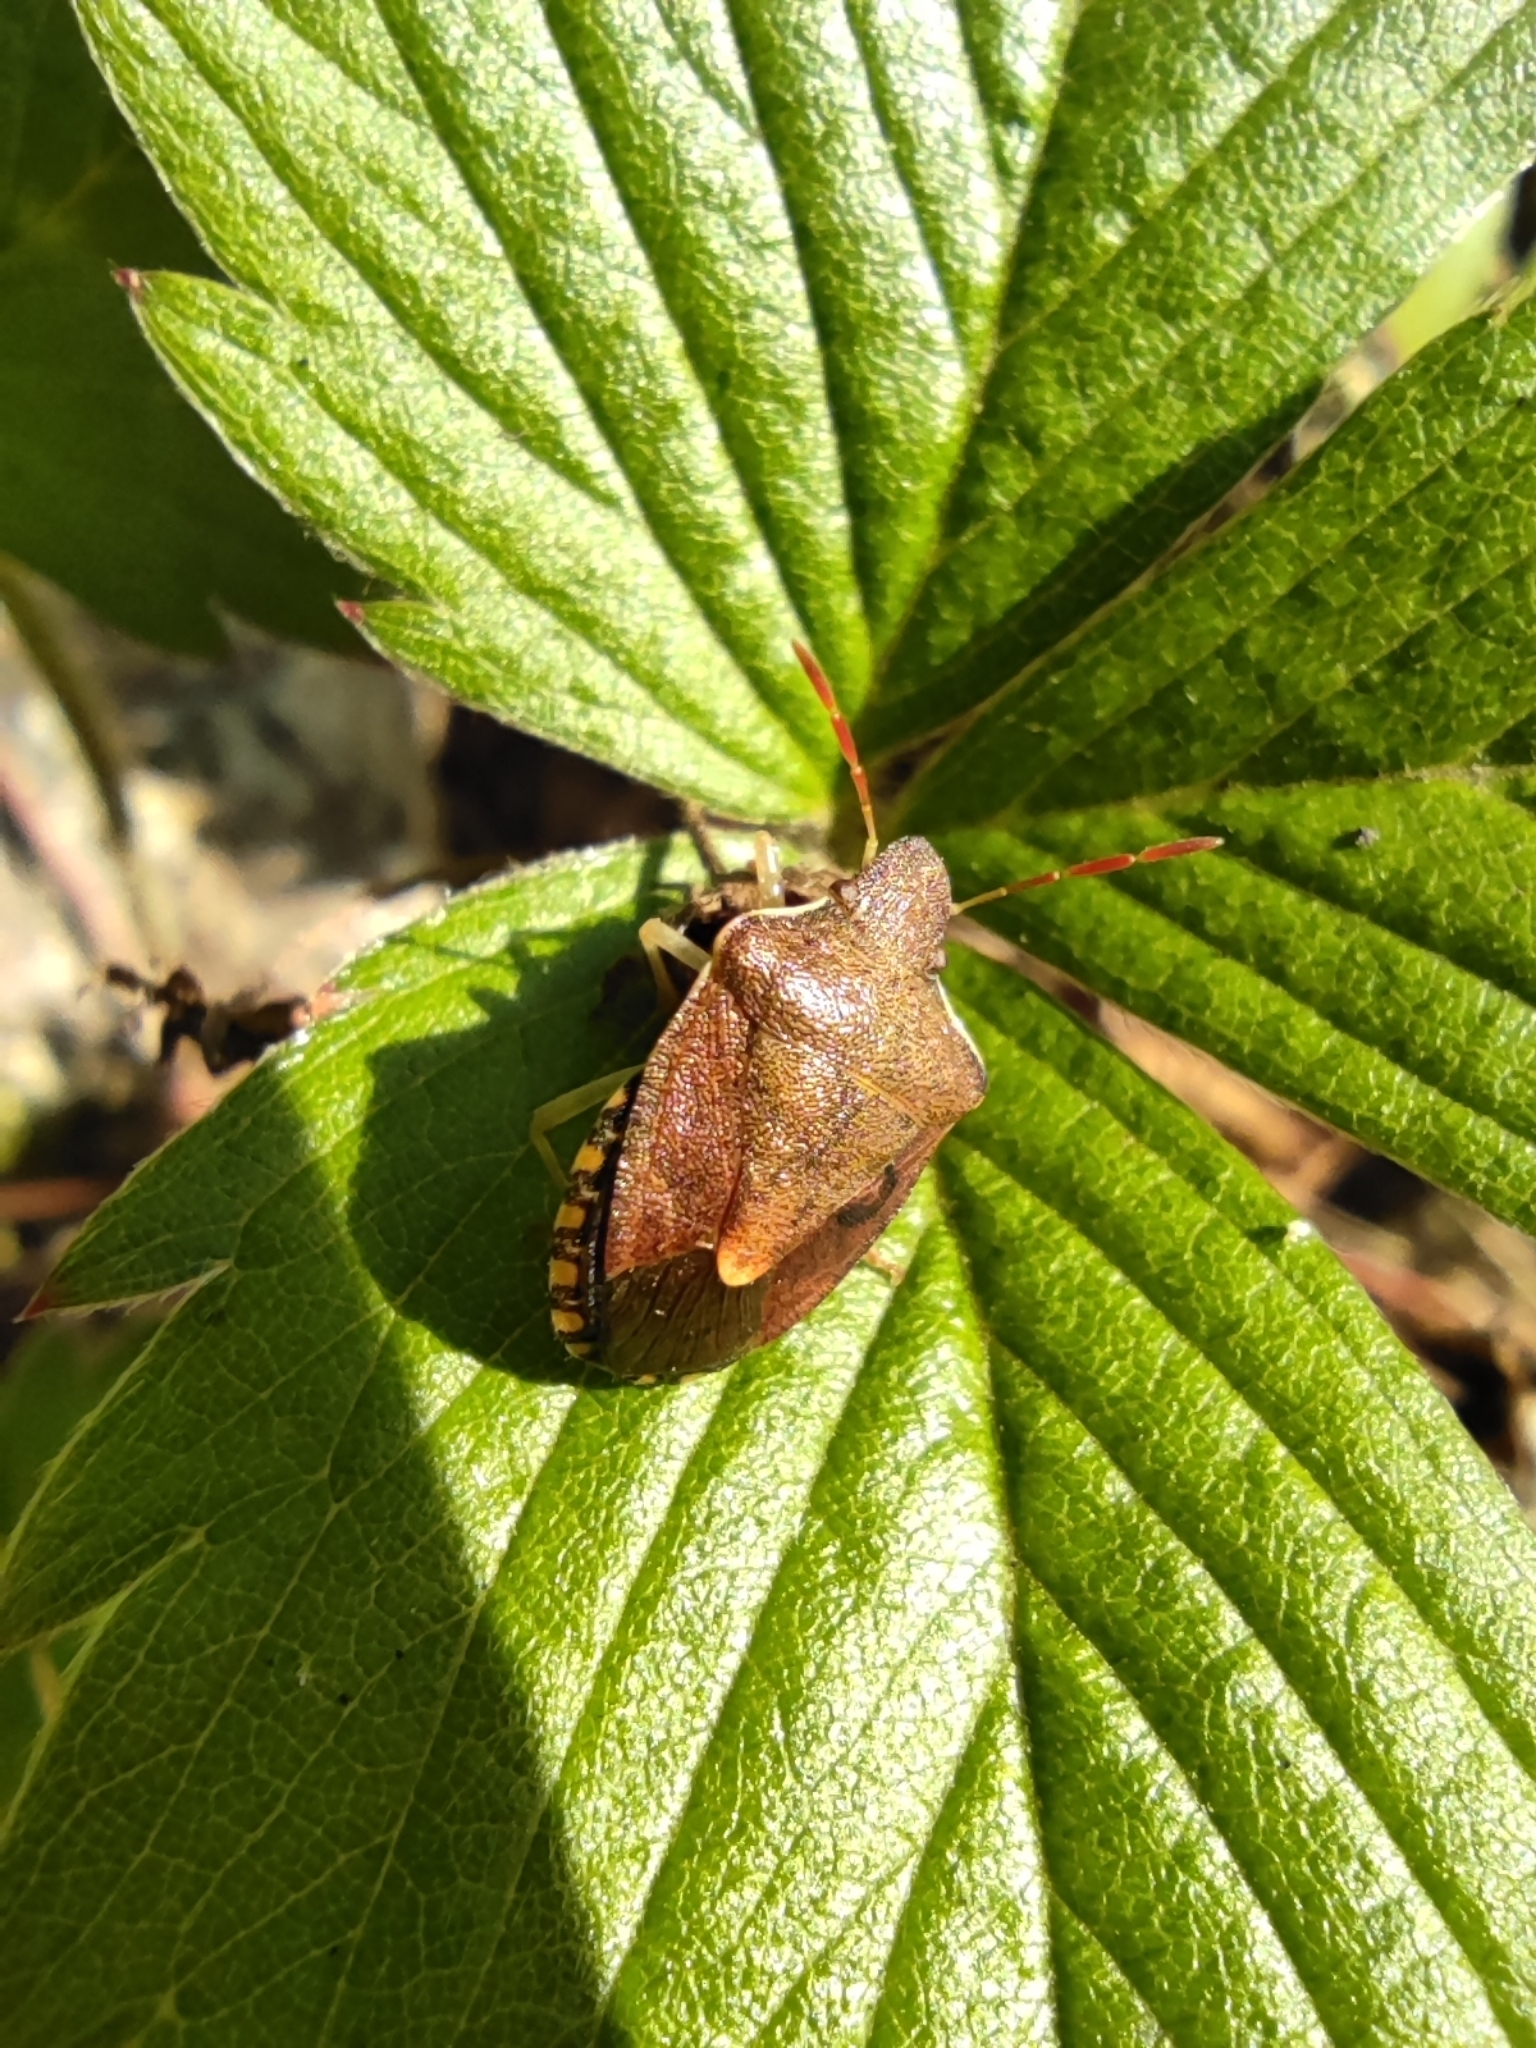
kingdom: Animalia
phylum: Arthropoda
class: Insecta
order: Hemiptera
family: Pentatomidae
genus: Holcostethus
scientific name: Holcostethus strictus
